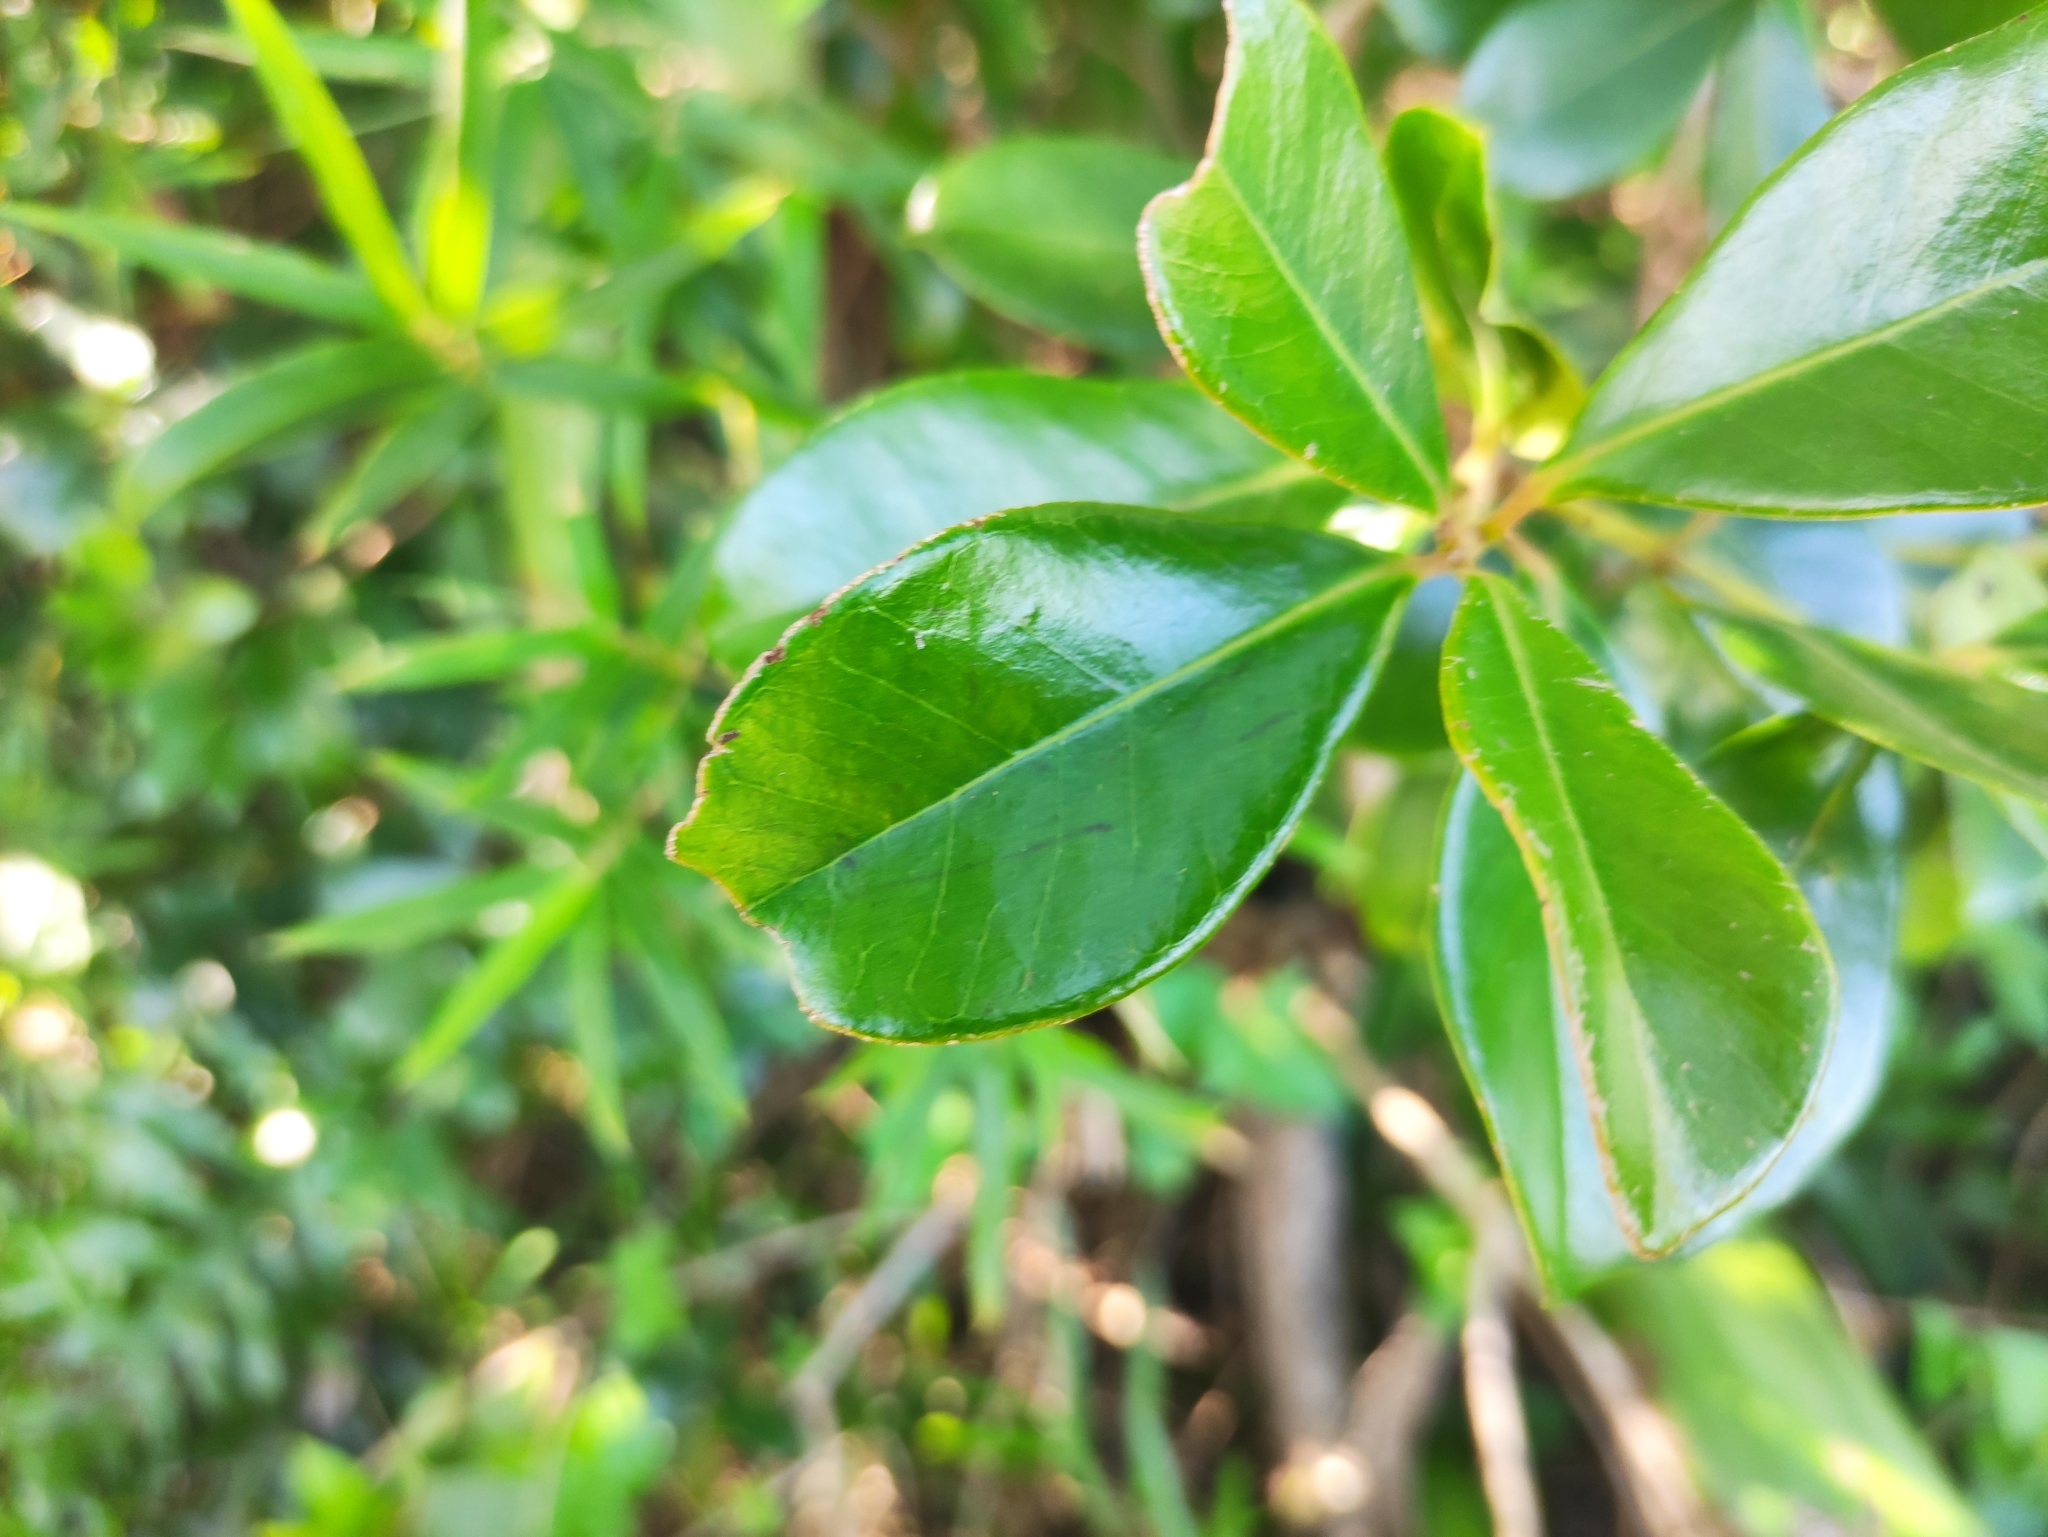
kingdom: Plantae
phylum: Tracheophyta
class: Magnoliopsida
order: Myrtales
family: Myrtaceae
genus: Psidium
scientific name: Psidium cattleianum
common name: Strawberry guava
